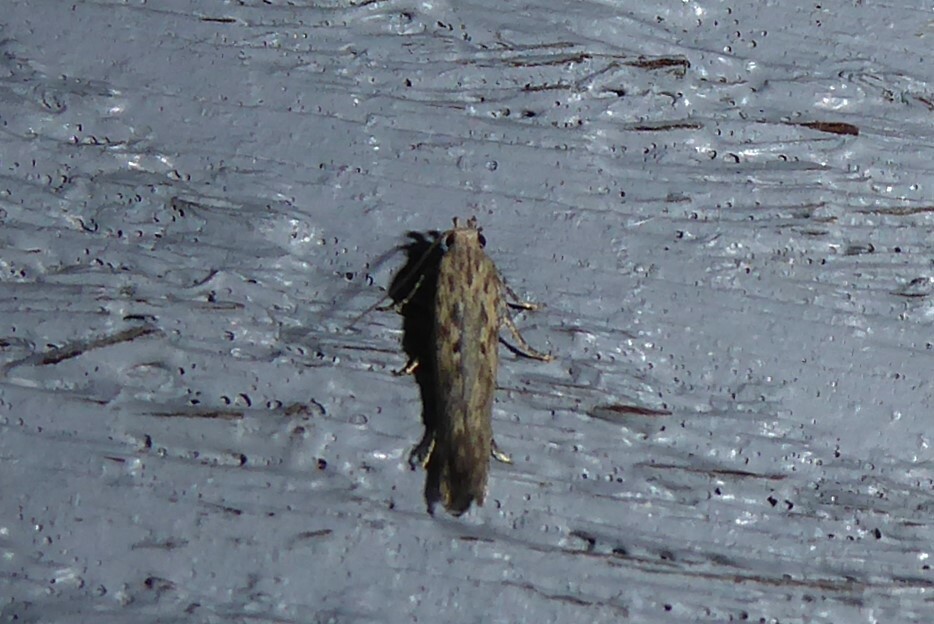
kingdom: Animalia
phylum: Arthropoda
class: Insecta
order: Lepidoptera
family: Gelechiidae
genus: Phthorimaea
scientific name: Phthorimaea operculella
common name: Potato tuber moth
